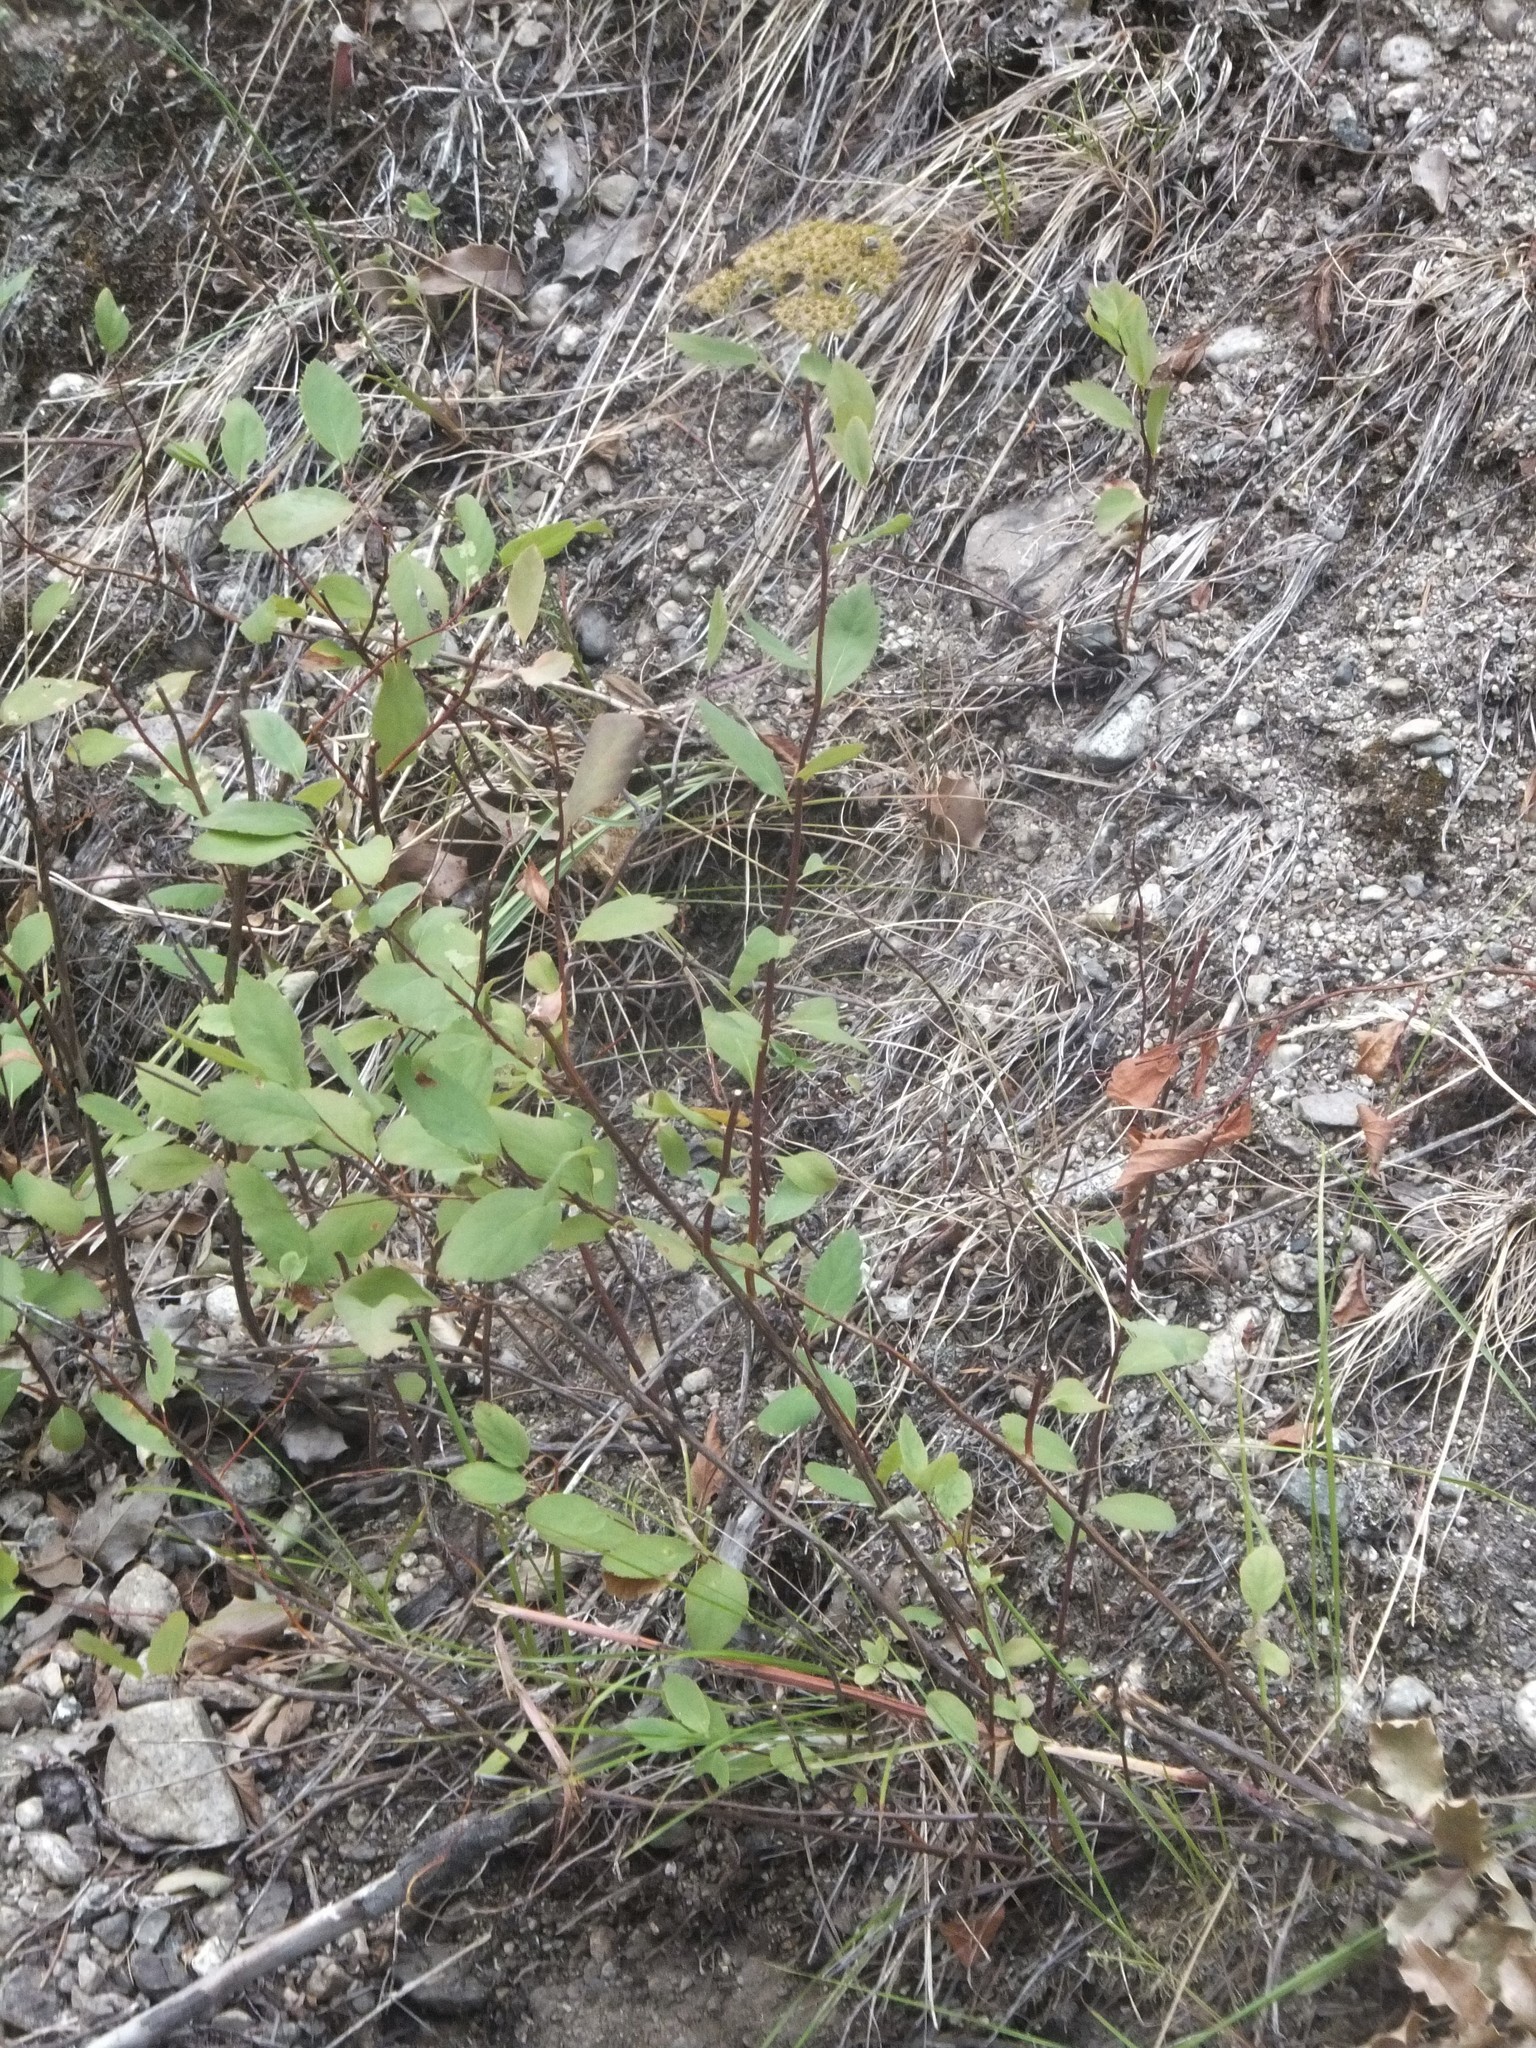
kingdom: Plantae
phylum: Tracheophyta
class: Magnoliopsida
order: Rosales
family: Rosaceae
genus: Spiraea
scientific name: Spiraea lucida
